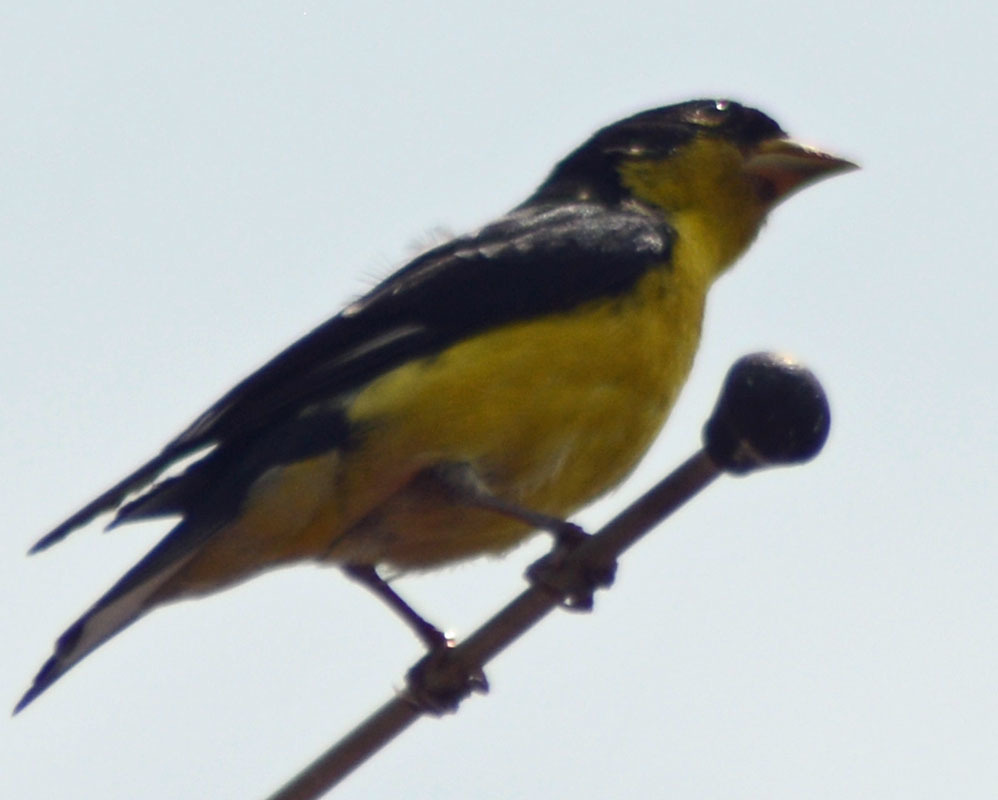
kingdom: Animalia
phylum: Chordata
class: Aves
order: Passeriformes
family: Fringillidae
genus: Spinus
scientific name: Spinus psaltria
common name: Lesser goldfinch
